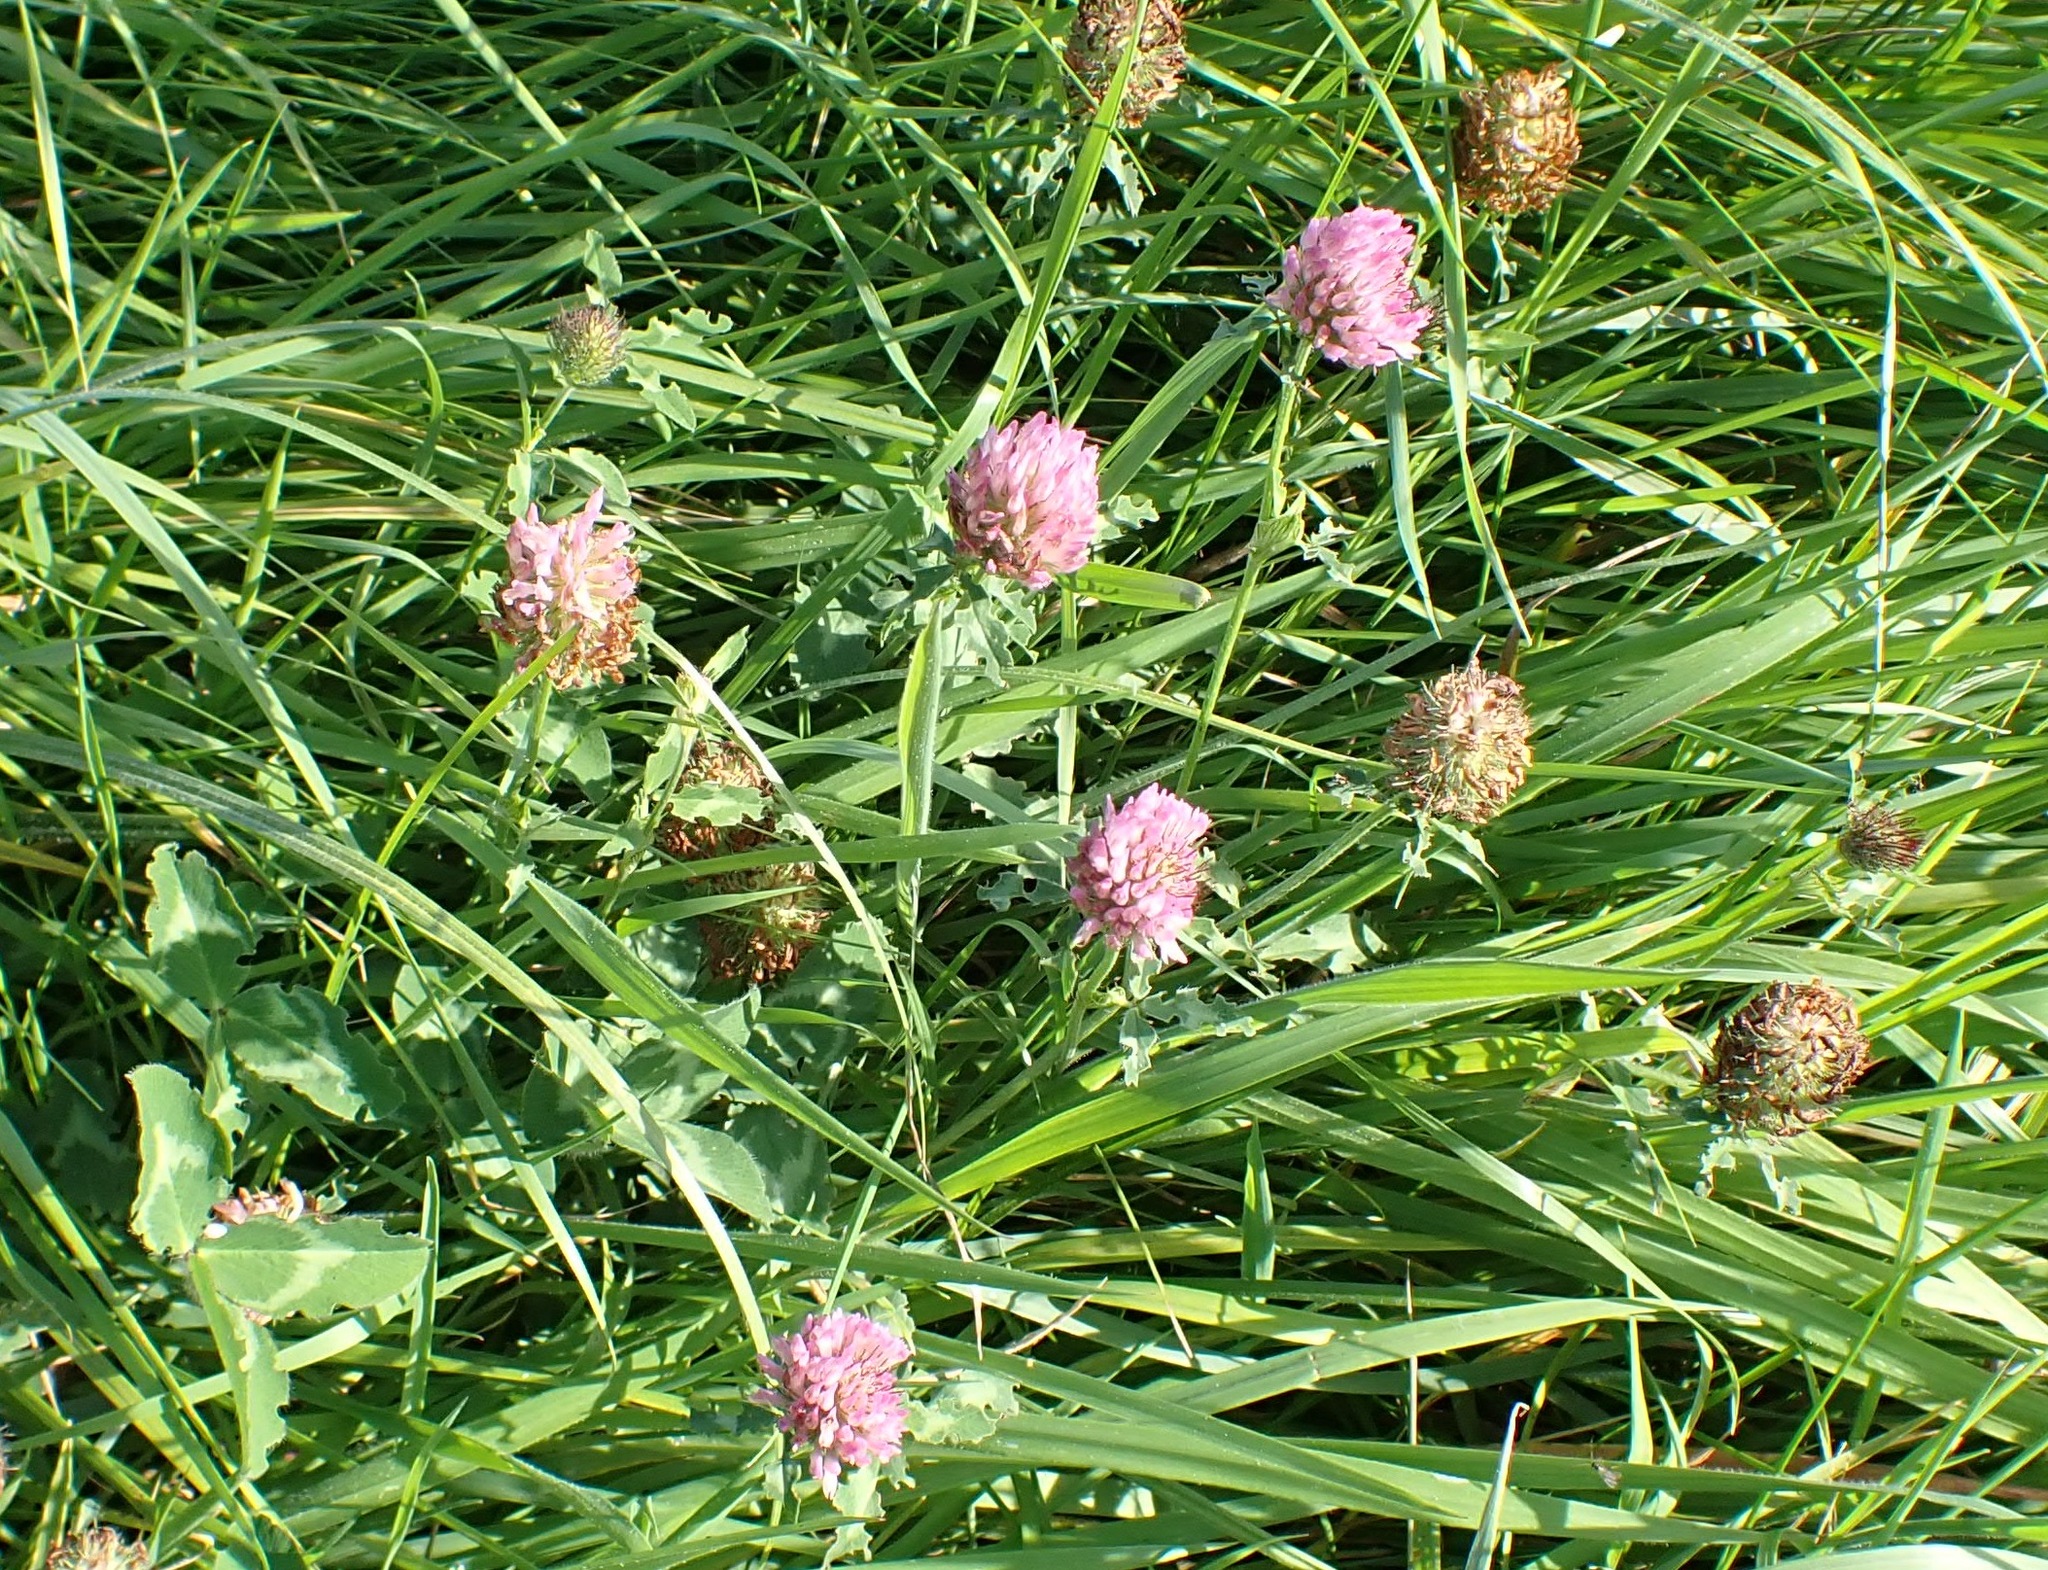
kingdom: Plantae
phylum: Tracheophyta
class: Magnoliopsida
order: Fabales
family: Fabaceae
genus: Trifolium
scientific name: Trifolium pratense
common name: Red clover
